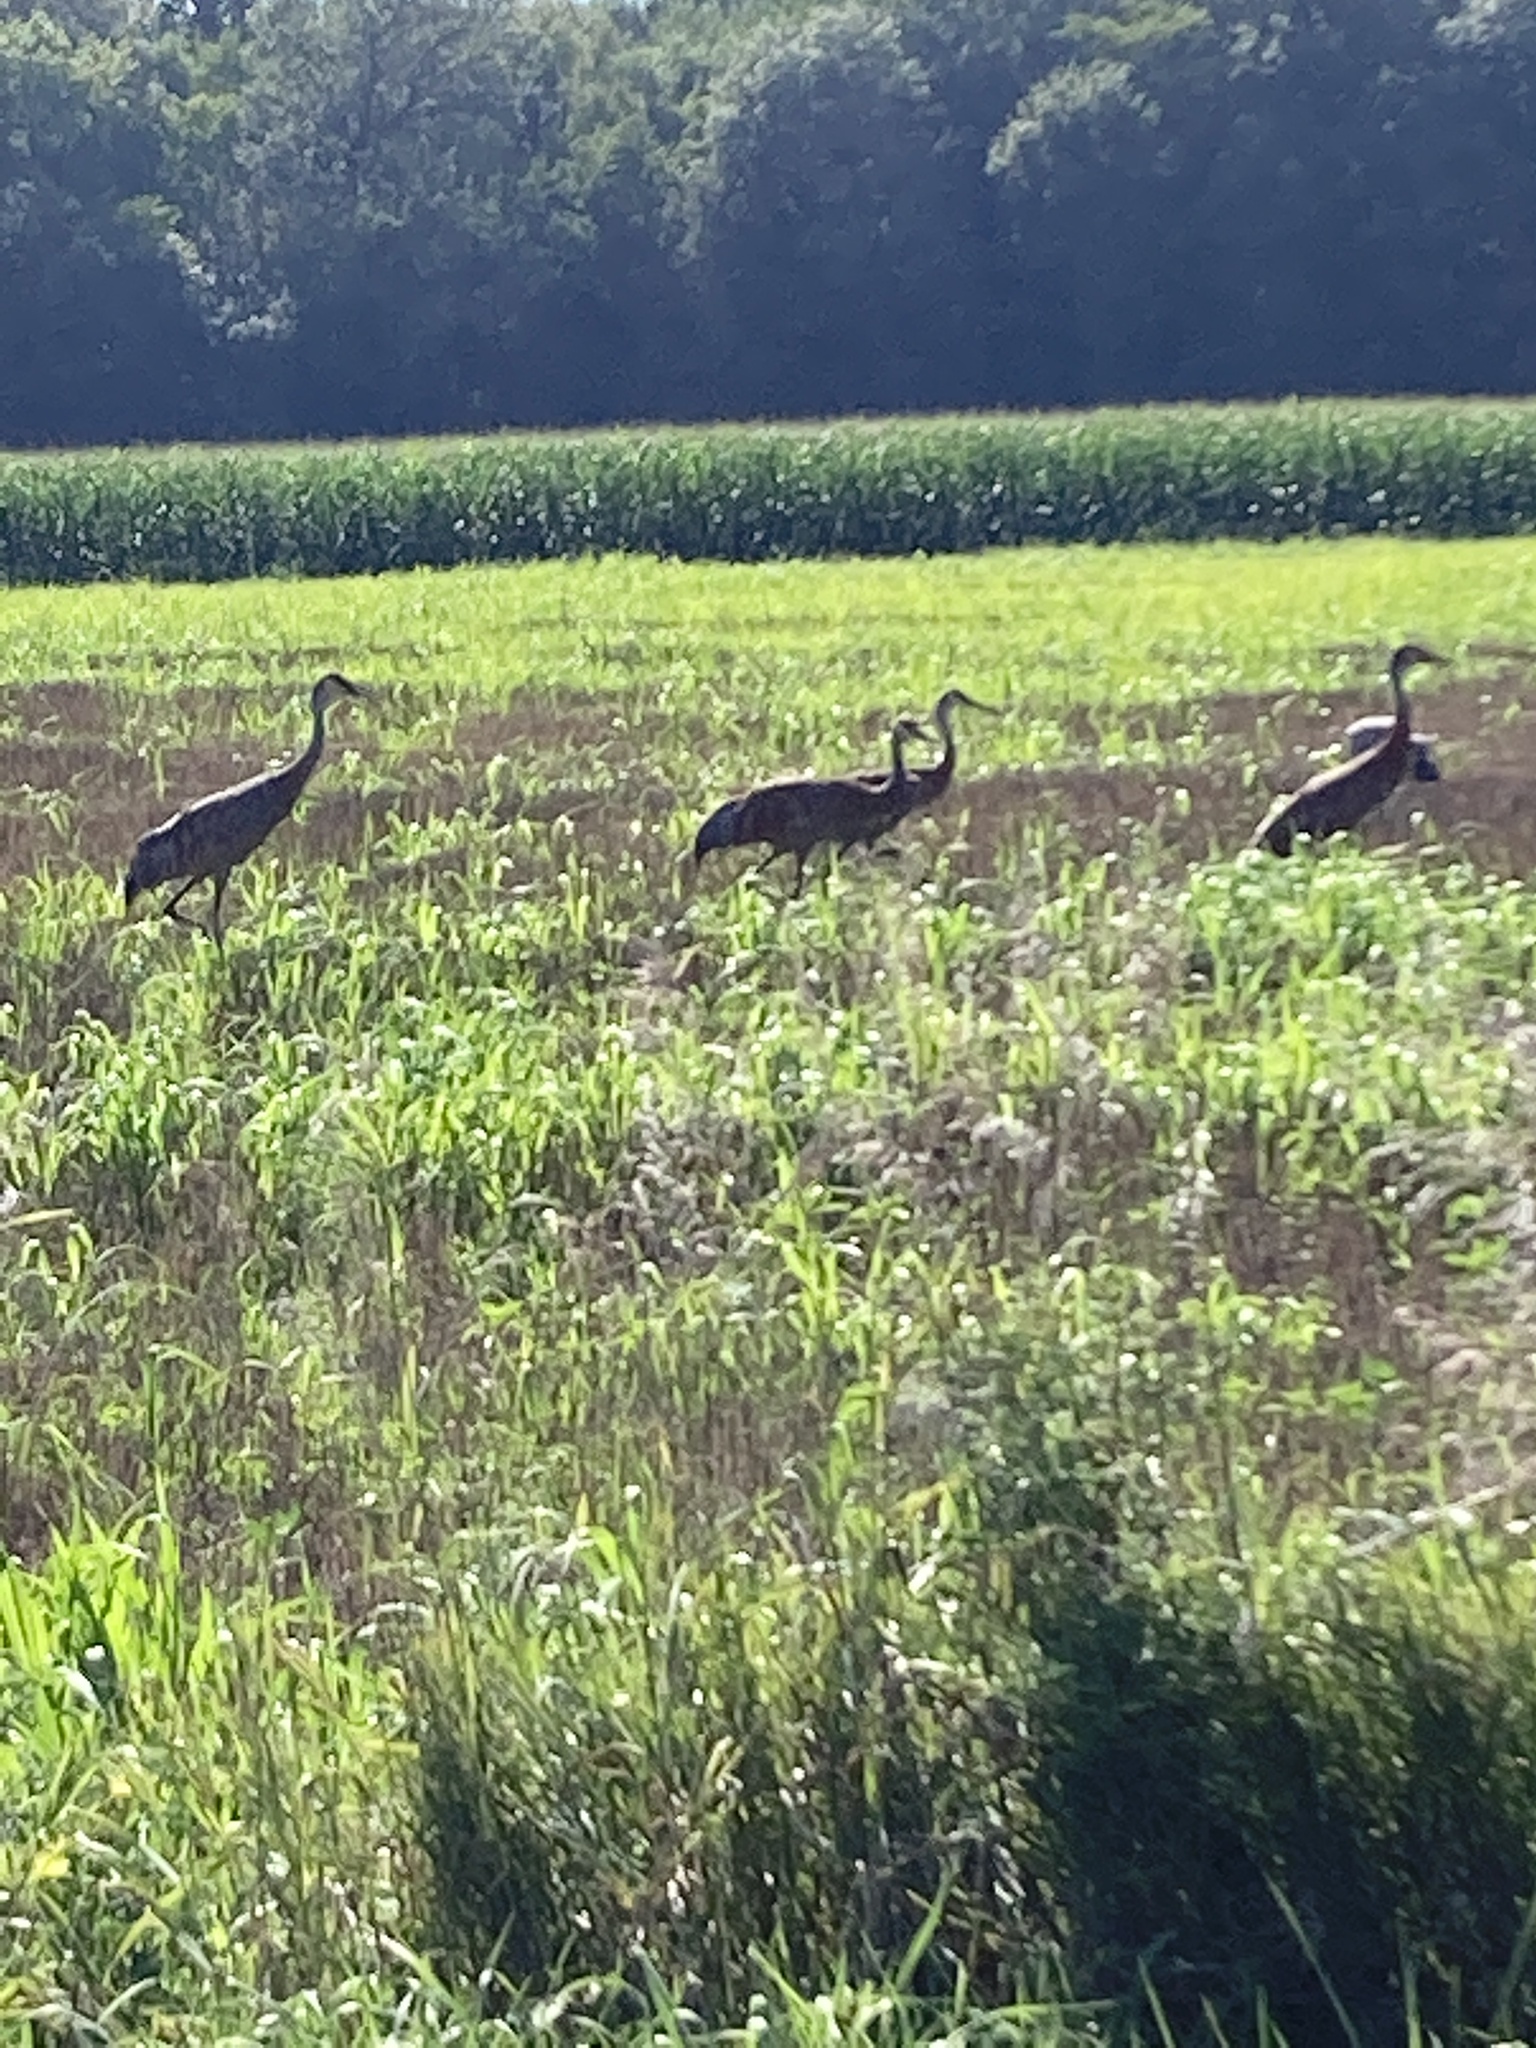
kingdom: Animalia
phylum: Chordata
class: Aves
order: Gruiformes
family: Gruidae
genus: Grus
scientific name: Grus canadensis
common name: Sandhill crane
